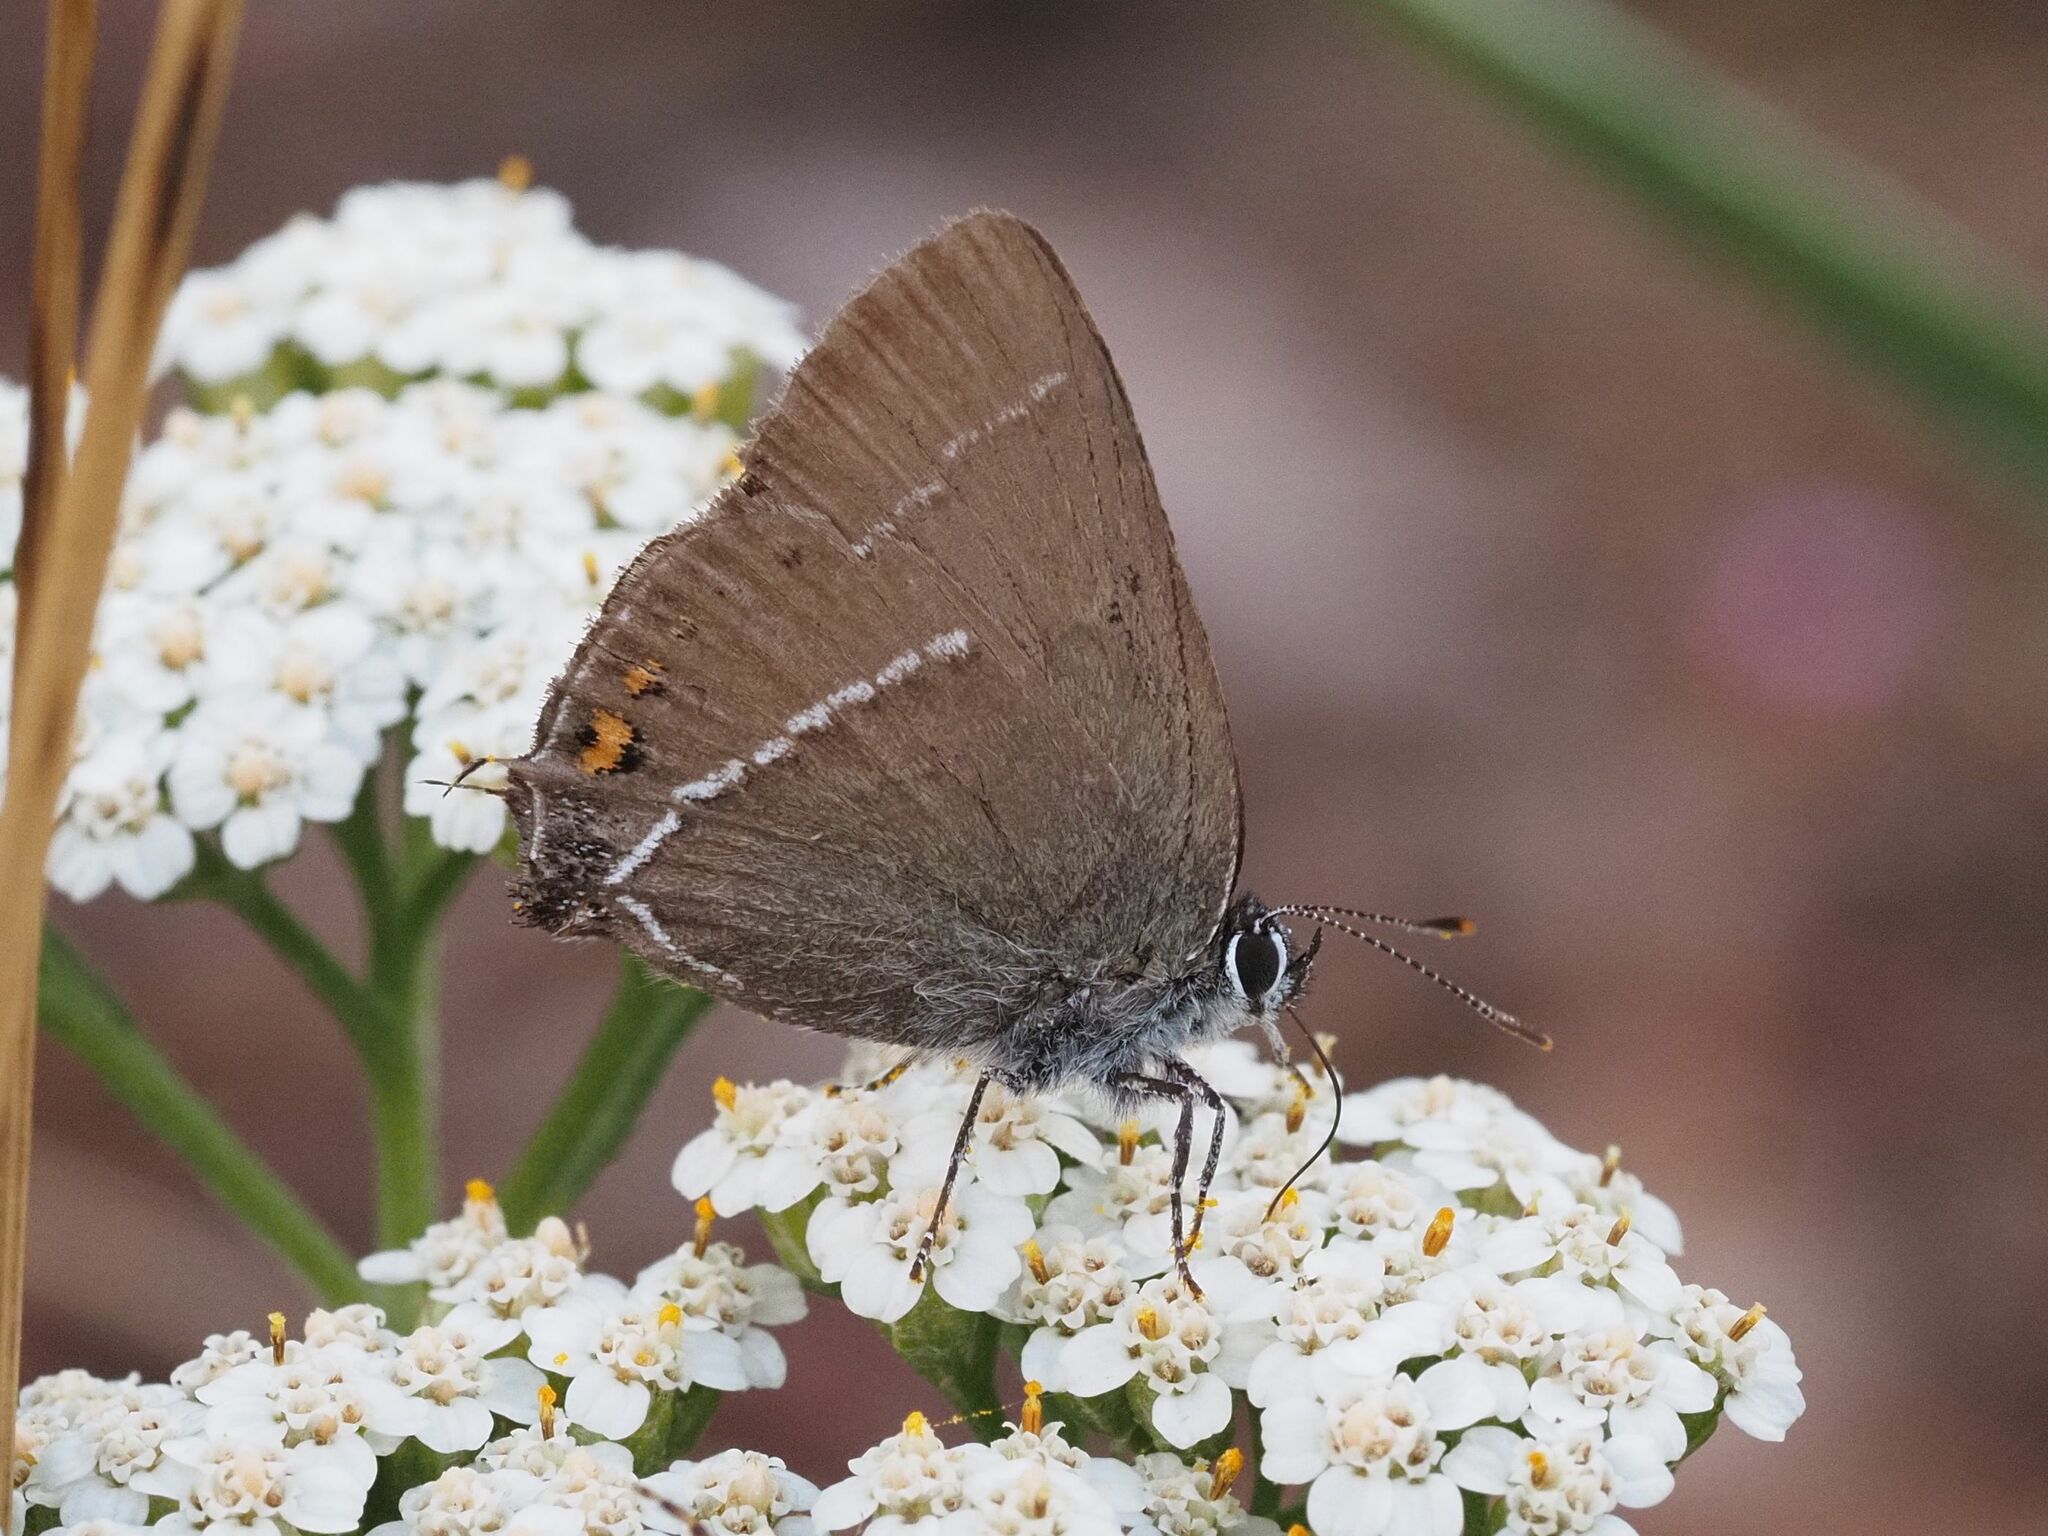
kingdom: Animalia
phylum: Arthropoda
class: Insecta
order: Lepidoptera
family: Lycaenidae
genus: Tuttiola
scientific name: Tuttiola spini
